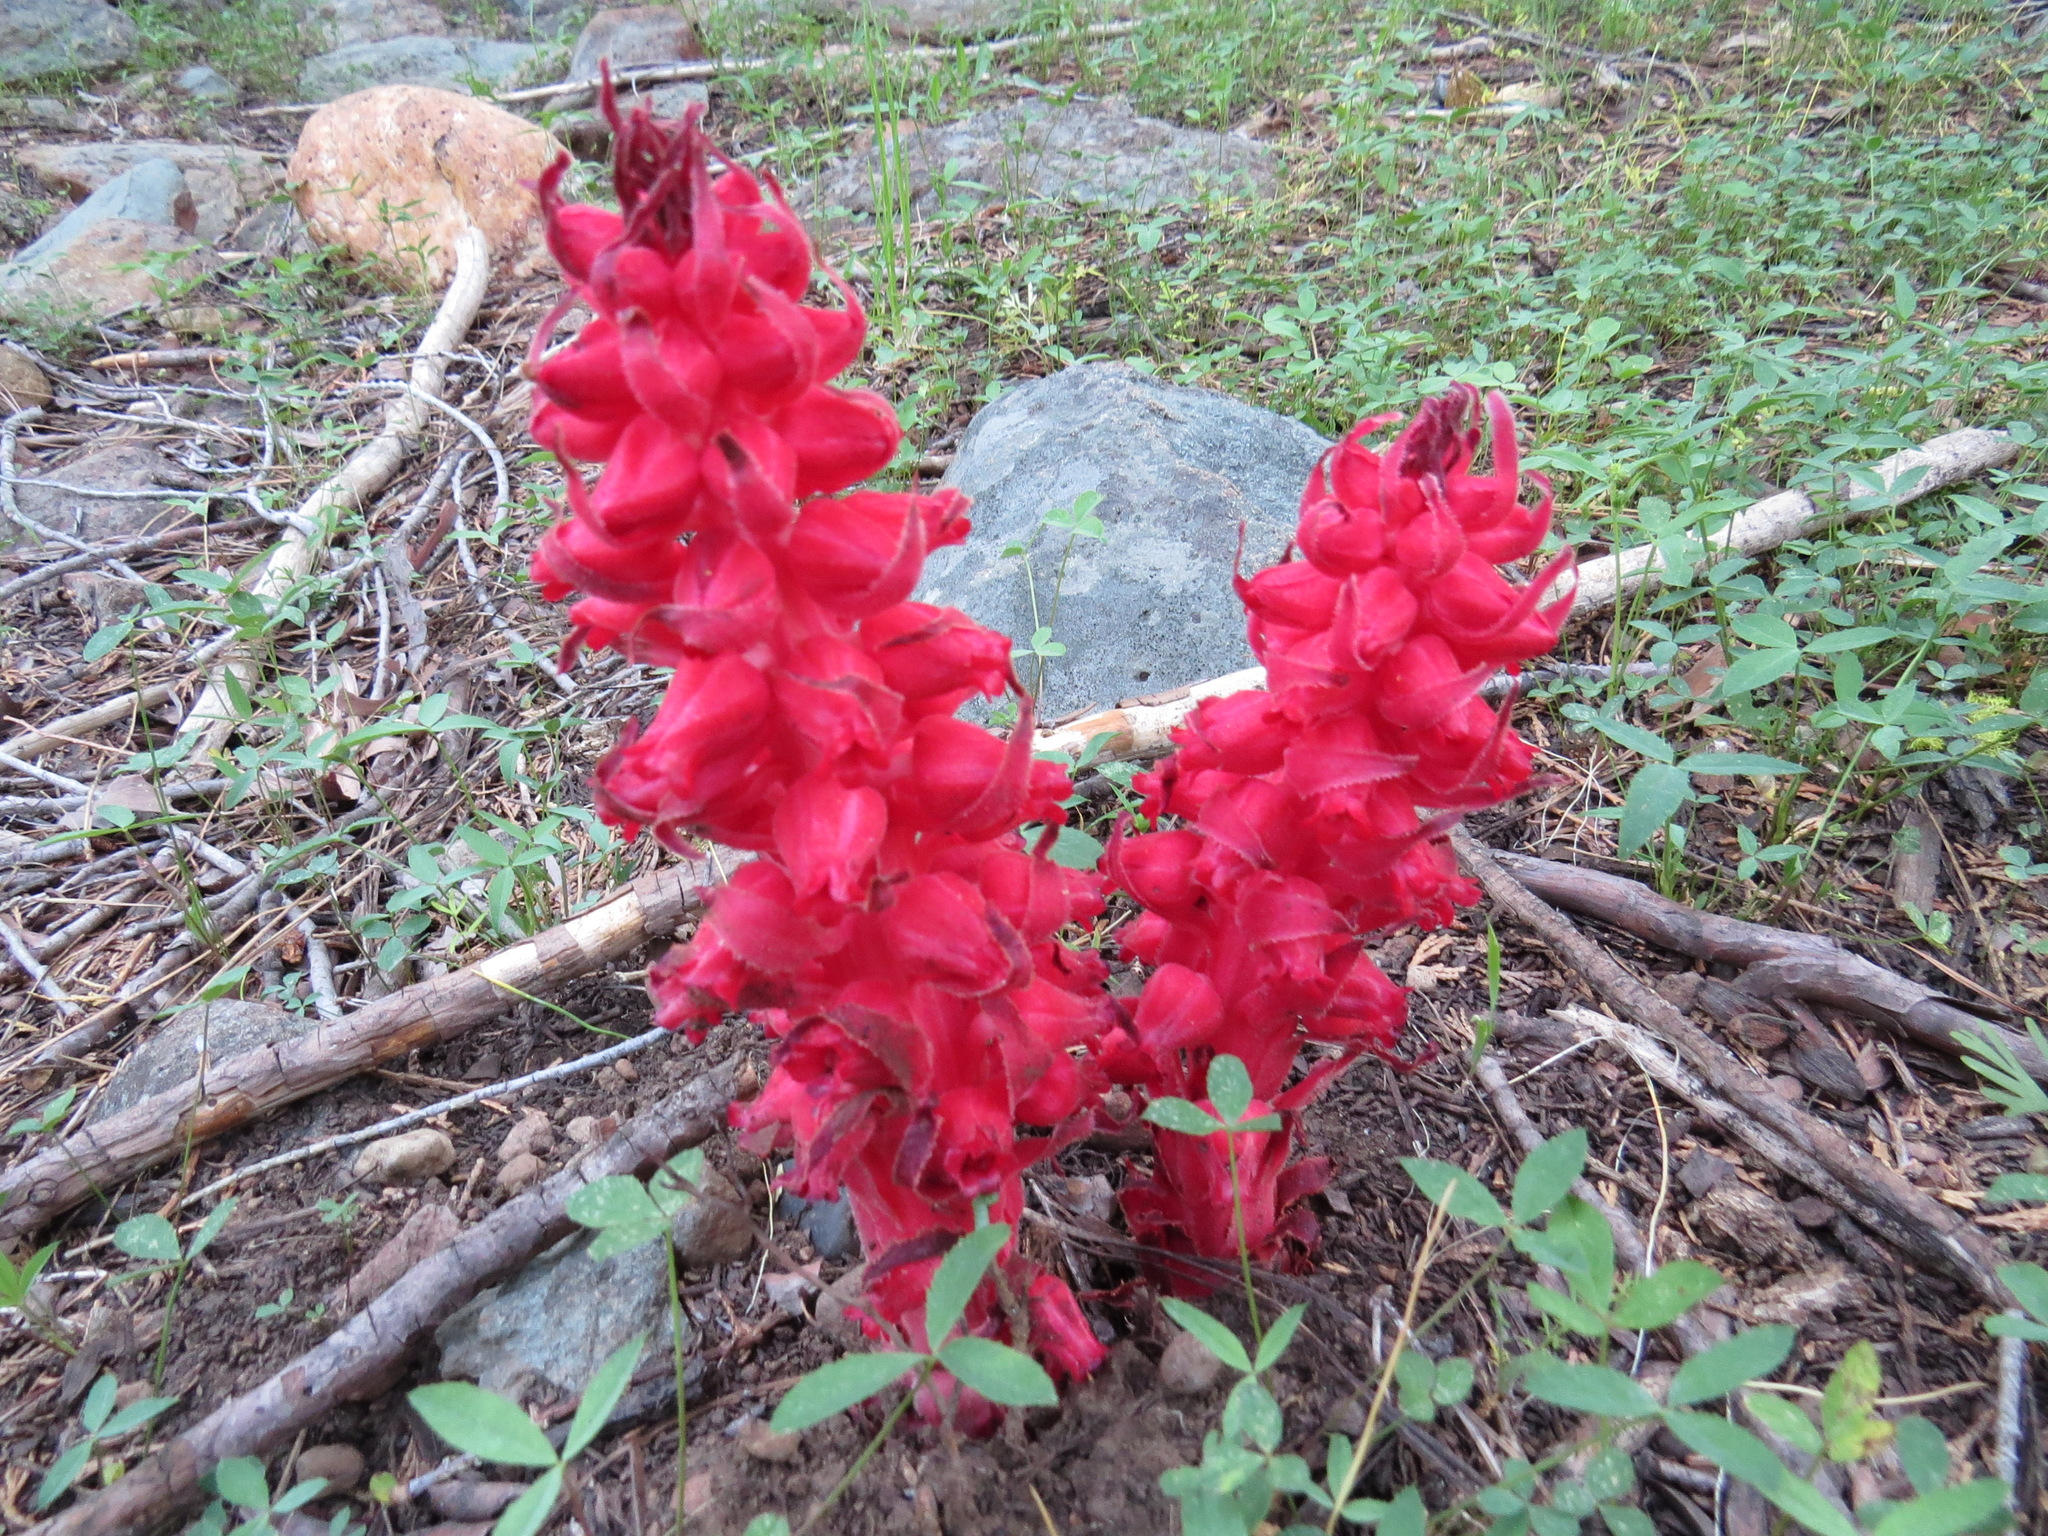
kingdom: Plantae
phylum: Tracheophyta
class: Magnoliopsida
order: Ericales
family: Ericaceae
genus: Sarcodes
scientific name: Sarcodes sanguinea
